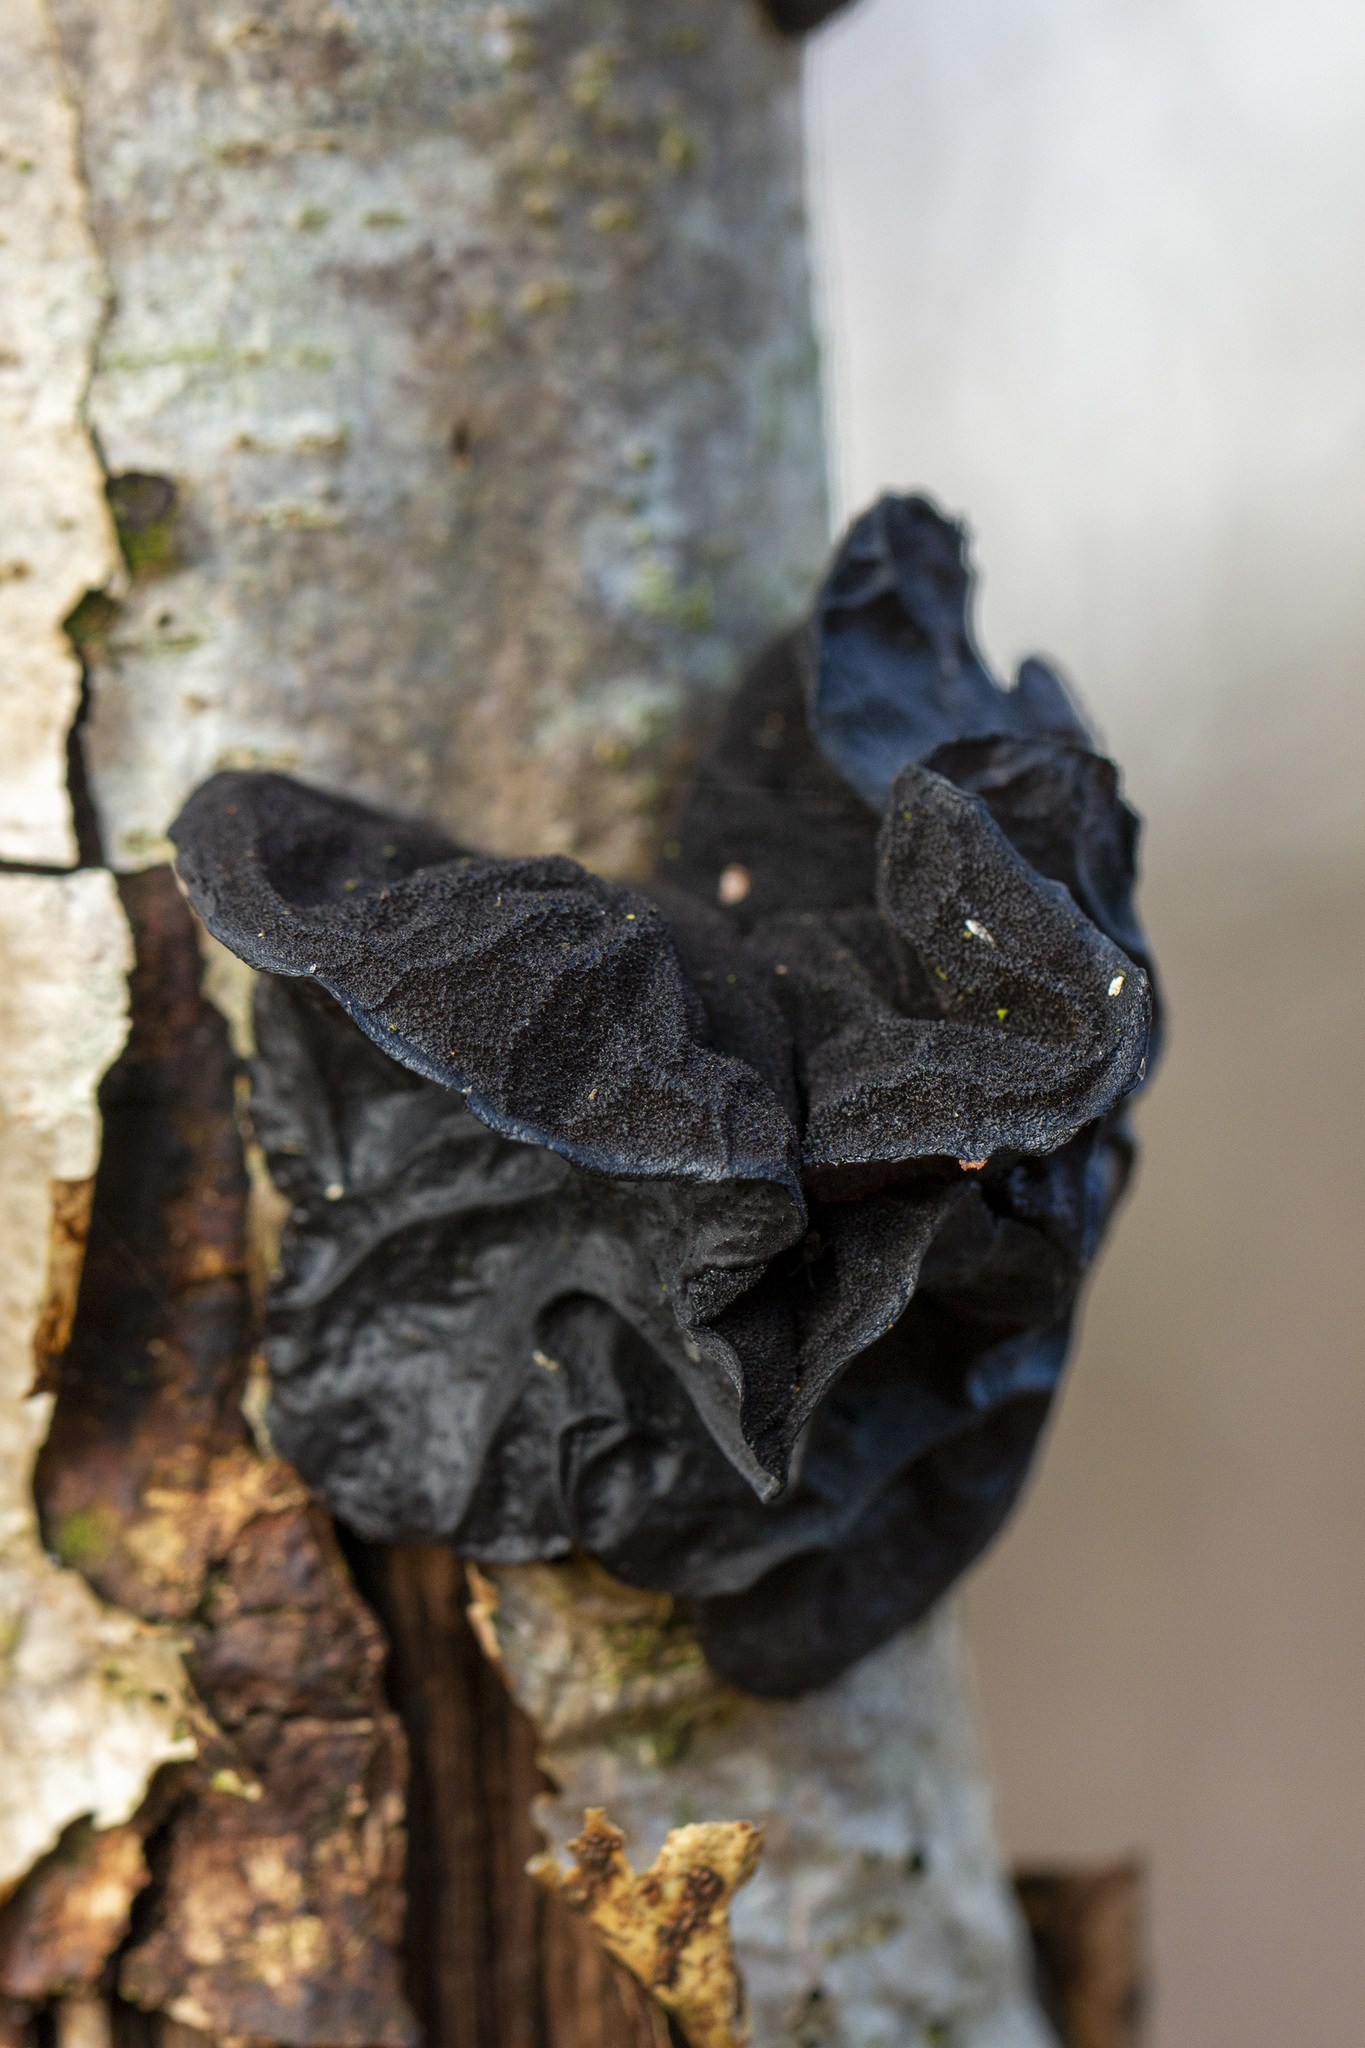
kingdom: Fungi
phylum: Basidiomycota
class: Agaricomycetes
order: Auriculariales
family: Auriculariaceae
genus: Exidia
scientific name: Exidia glandulosa
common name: Witches' butter
